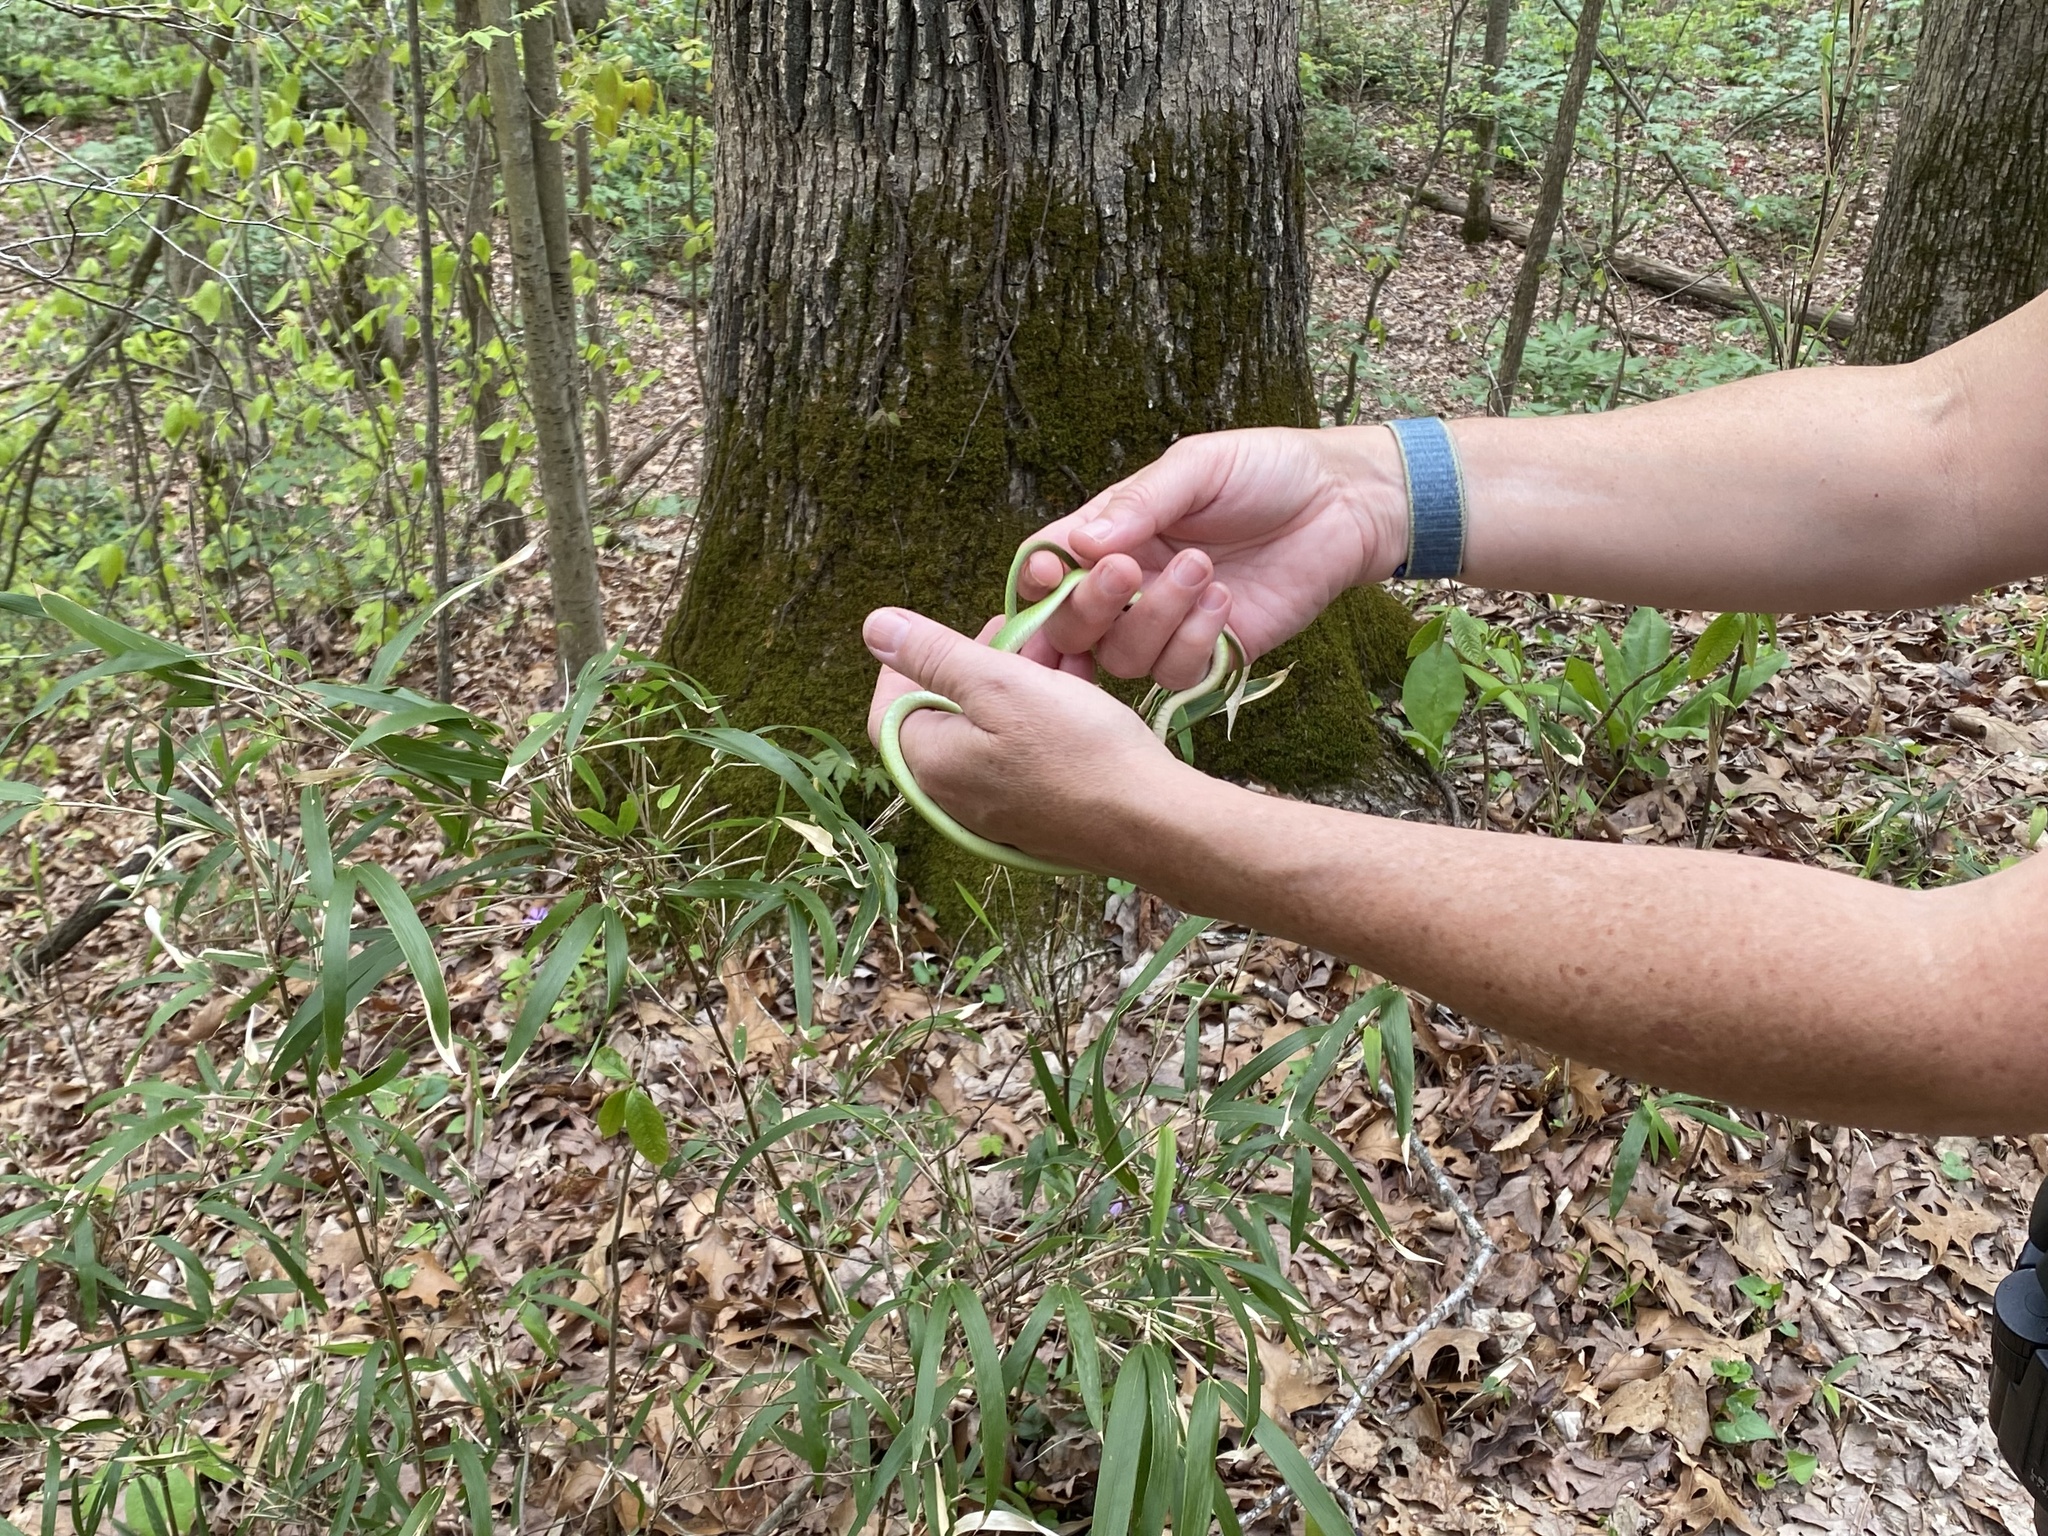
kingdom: Animalia
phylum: Chordata
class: Squamata
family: Colubridae
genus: Opheodrys
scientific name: Opheodrys aestivus
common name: Rough greensnake
